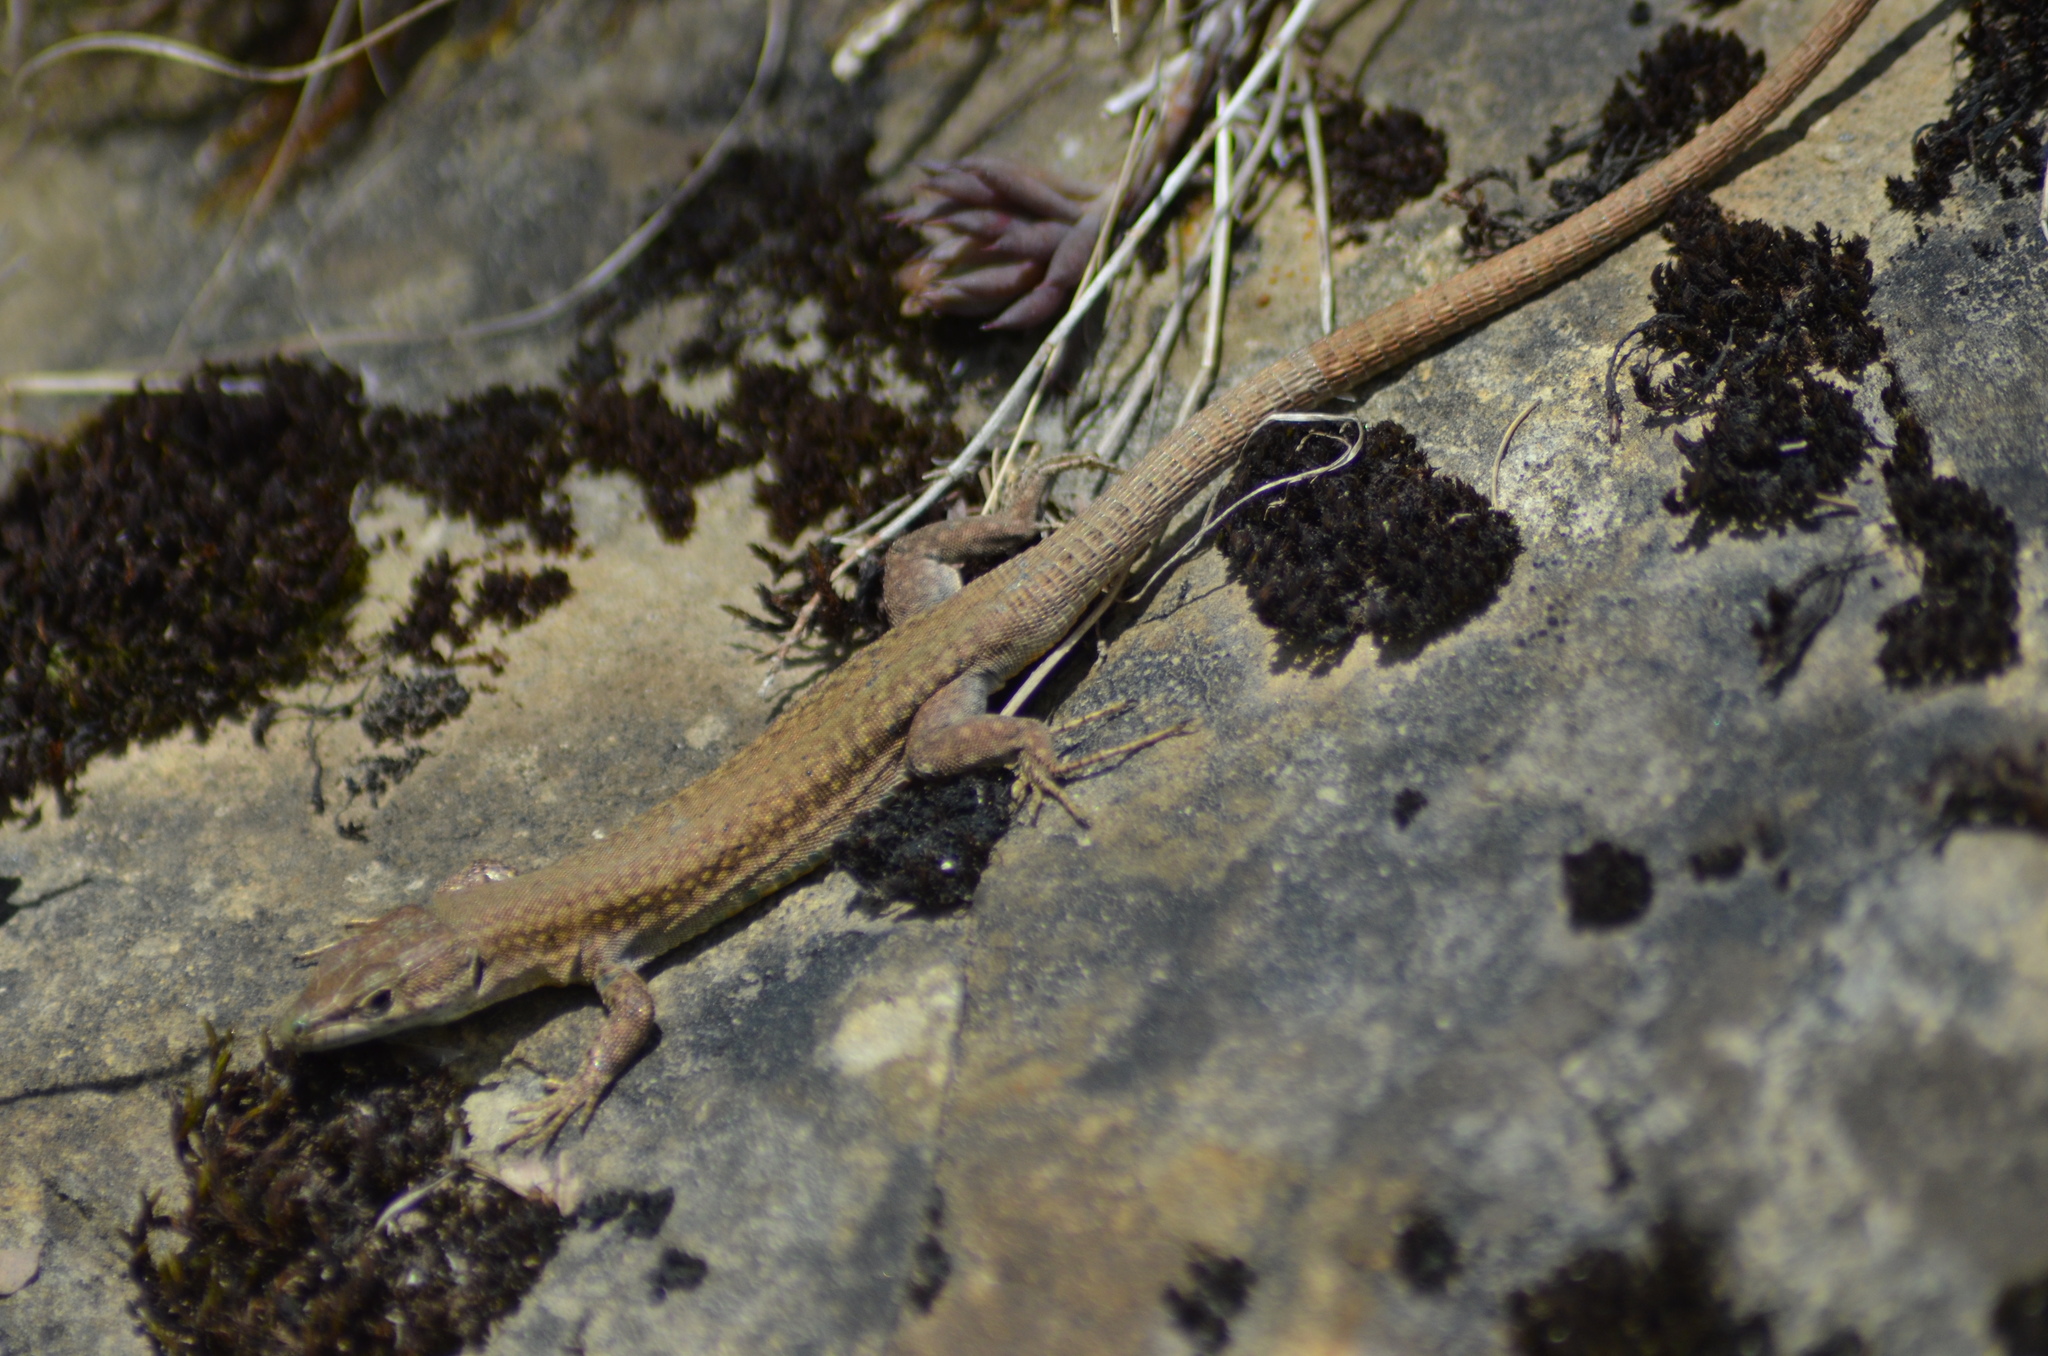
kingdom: Animalia
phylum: Chordata
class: Squamata
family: Lacertidae
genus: Podarcis
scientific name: Podarcis liolepis
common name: Catalonian wall lizard
